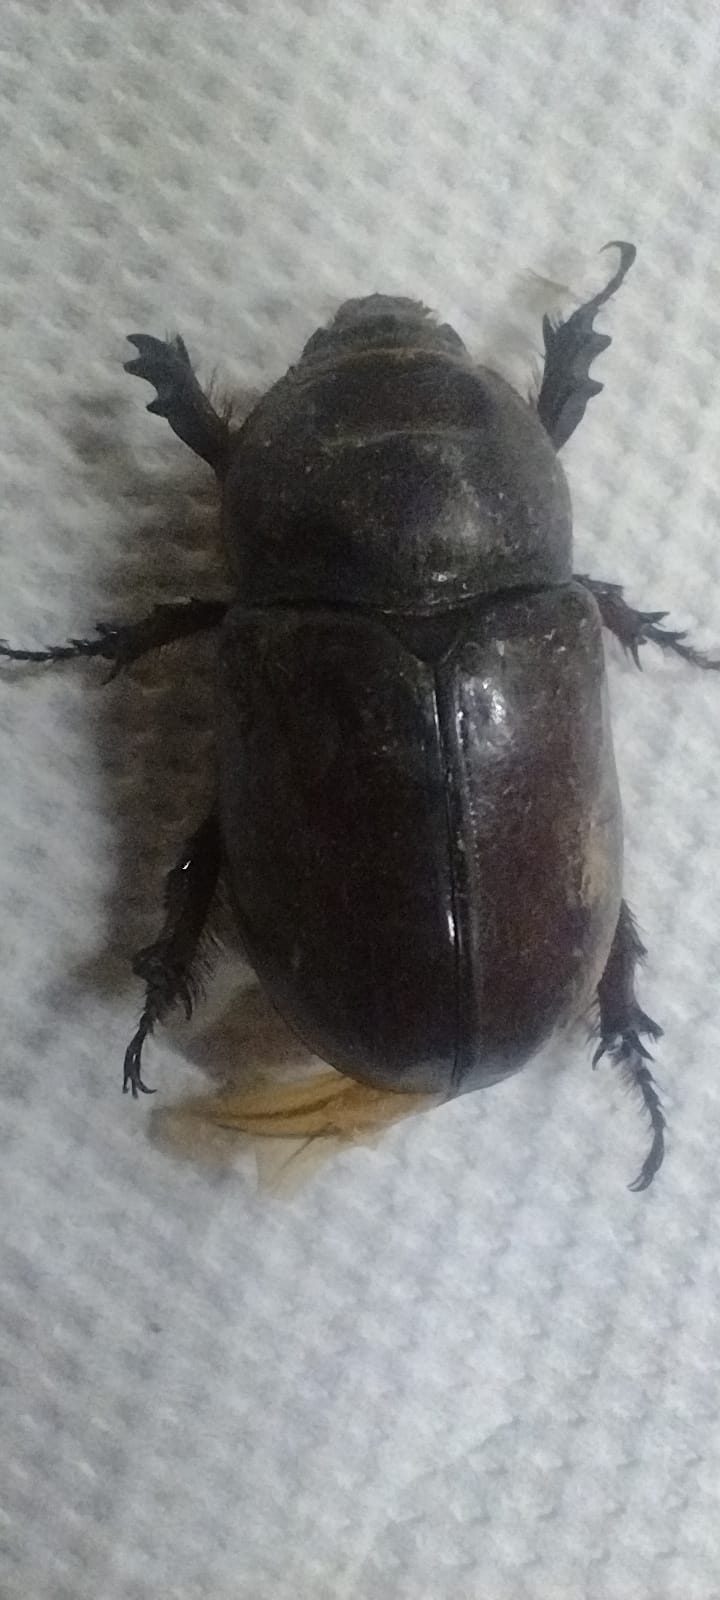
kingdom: Animalia
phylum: Arthropoda
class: Insecta
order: Coleoptera
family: Scarabaeidae
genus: Oryctes
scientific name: Oryctes nasicornis
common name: European rhinoceros beetle
